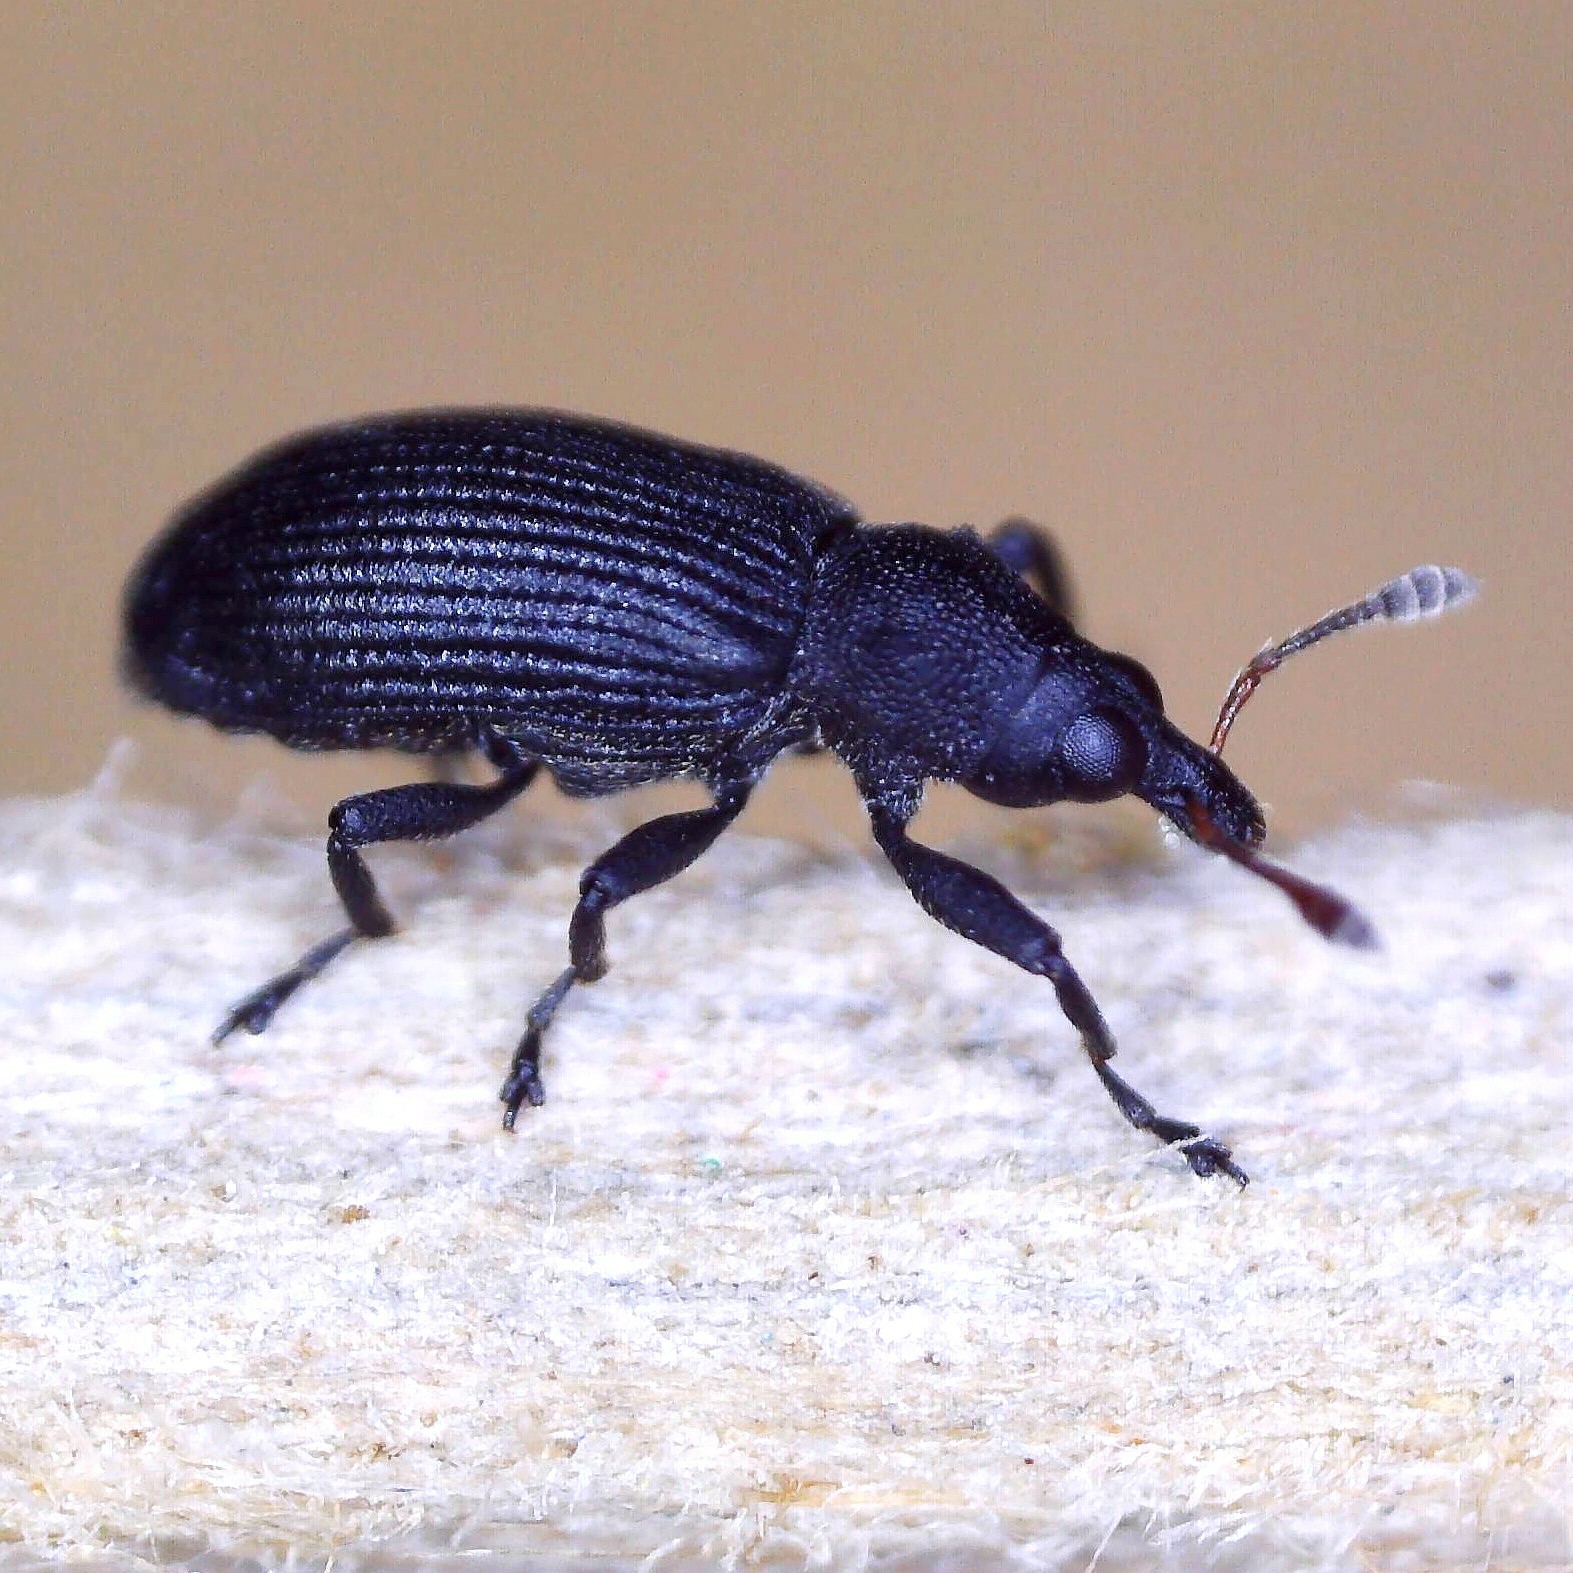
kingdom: Animalia
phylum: Arthropoda
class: Insecta
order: Coleoptera
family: Curculionidae
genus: Magdalis
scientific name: Magdalis ruficornis
